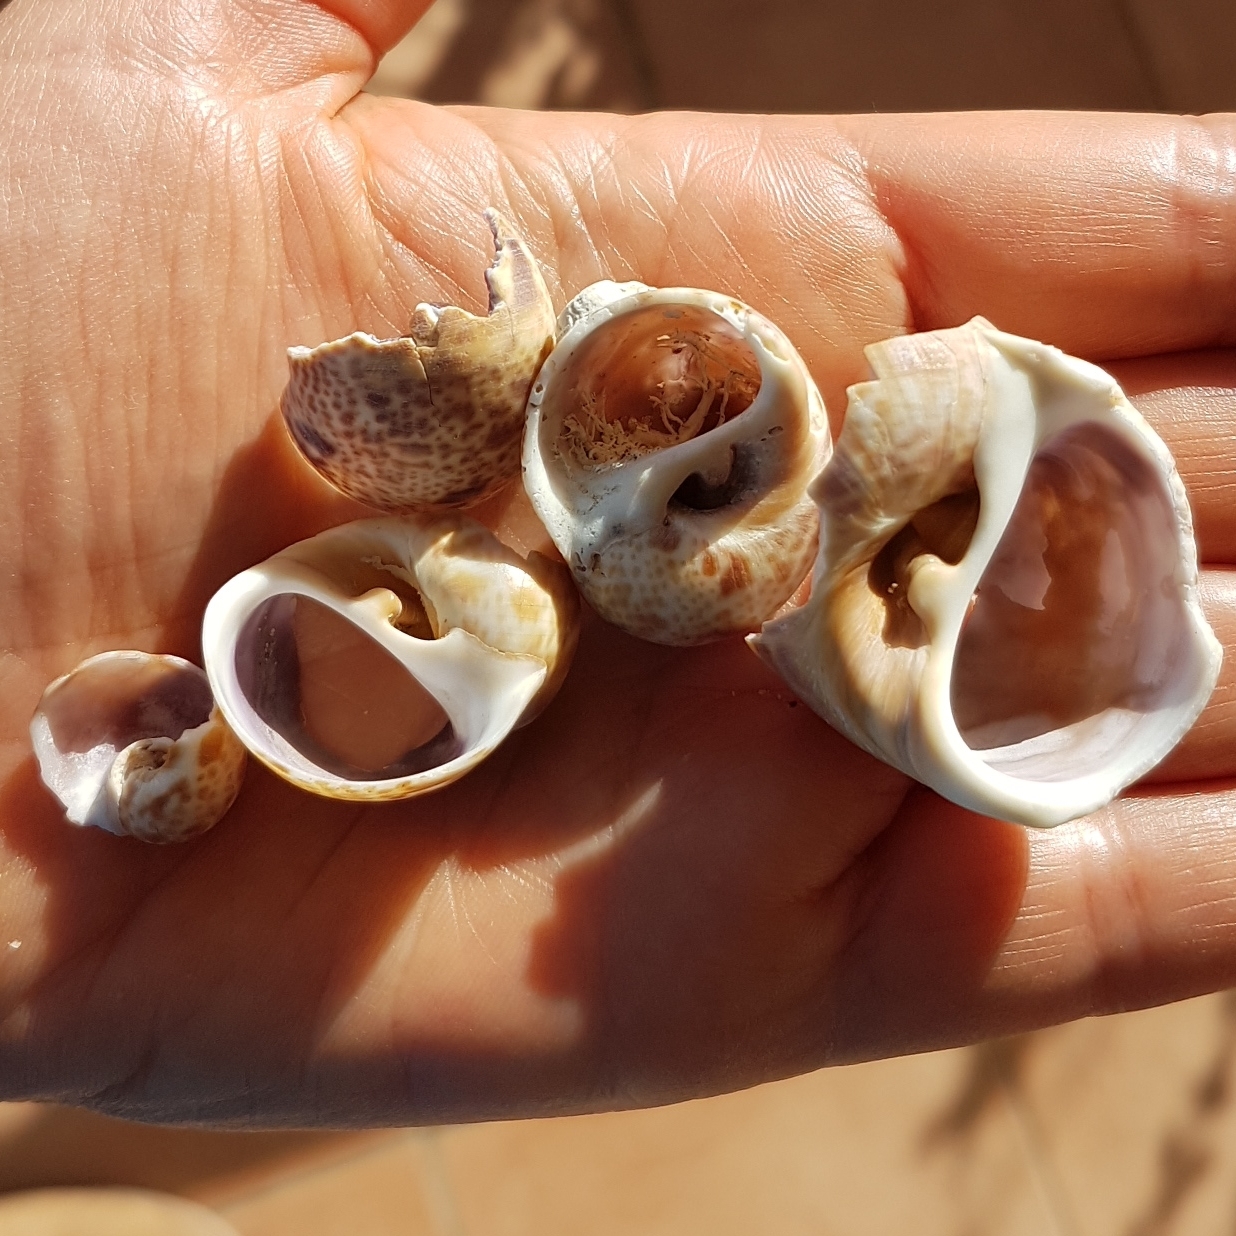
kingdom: Animalia
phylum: Mollusca
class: Gastropoda
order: Littorinimorpha
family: Naticidae
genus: Naticarius
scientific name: Naticarius hebraeus
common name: Hebrew moon shell
